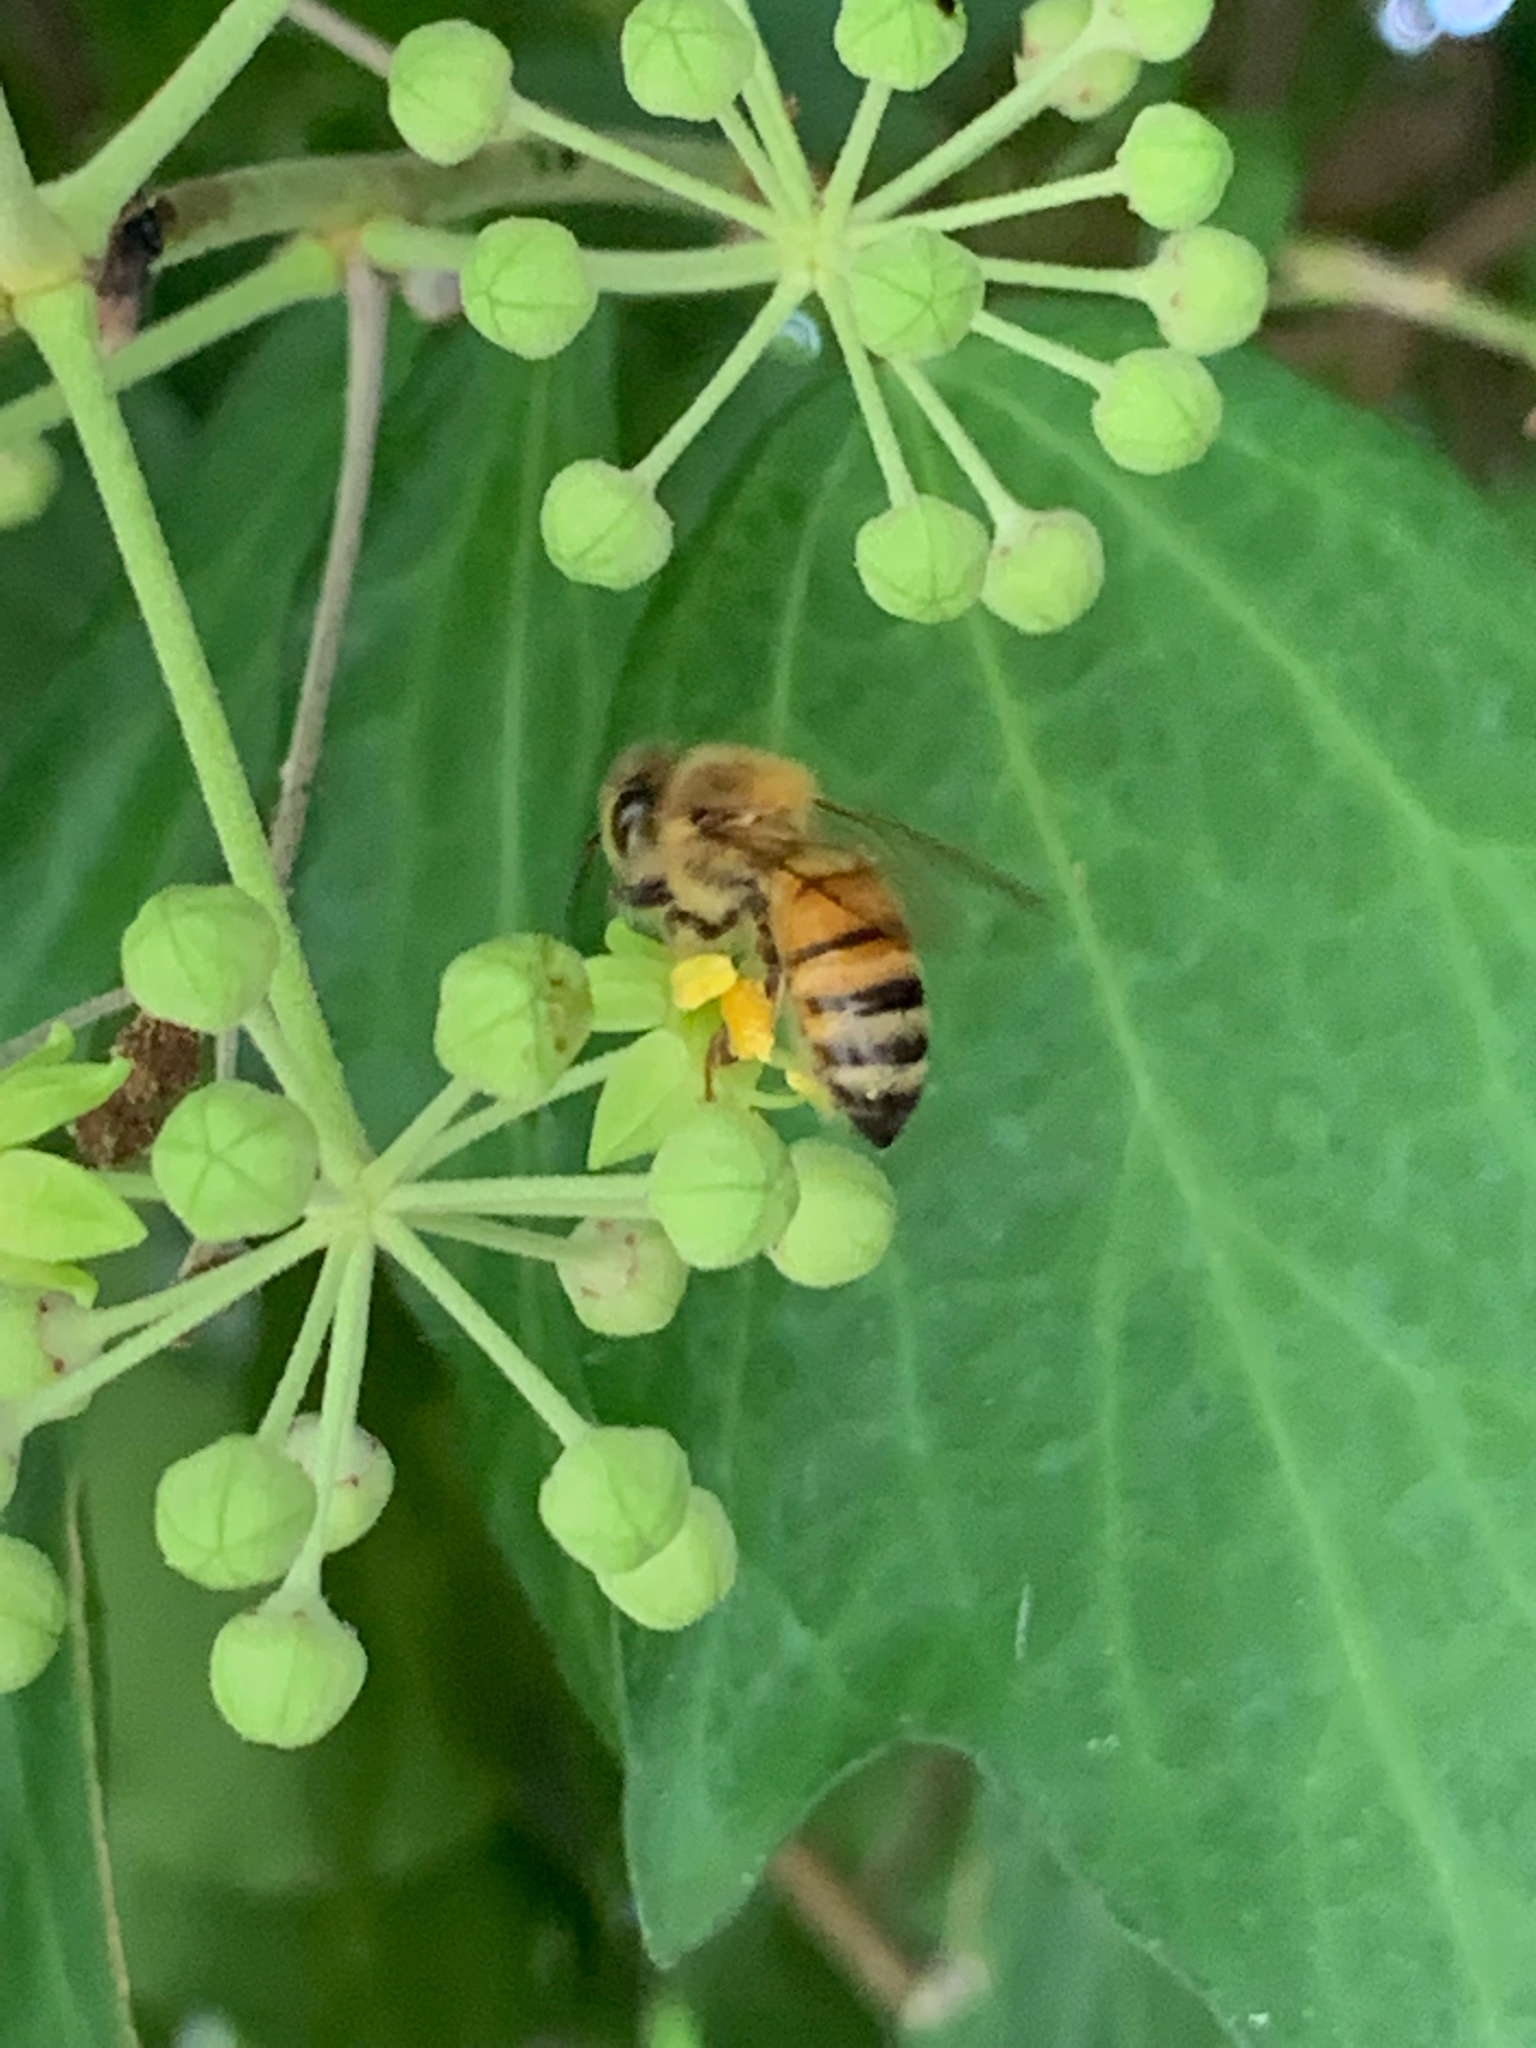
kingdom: Animalia
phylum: Arthropoda
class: Insecta
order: Hymenoptera
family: Apidae
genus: Apis
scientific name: Apis mellifera
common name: Honey bee
